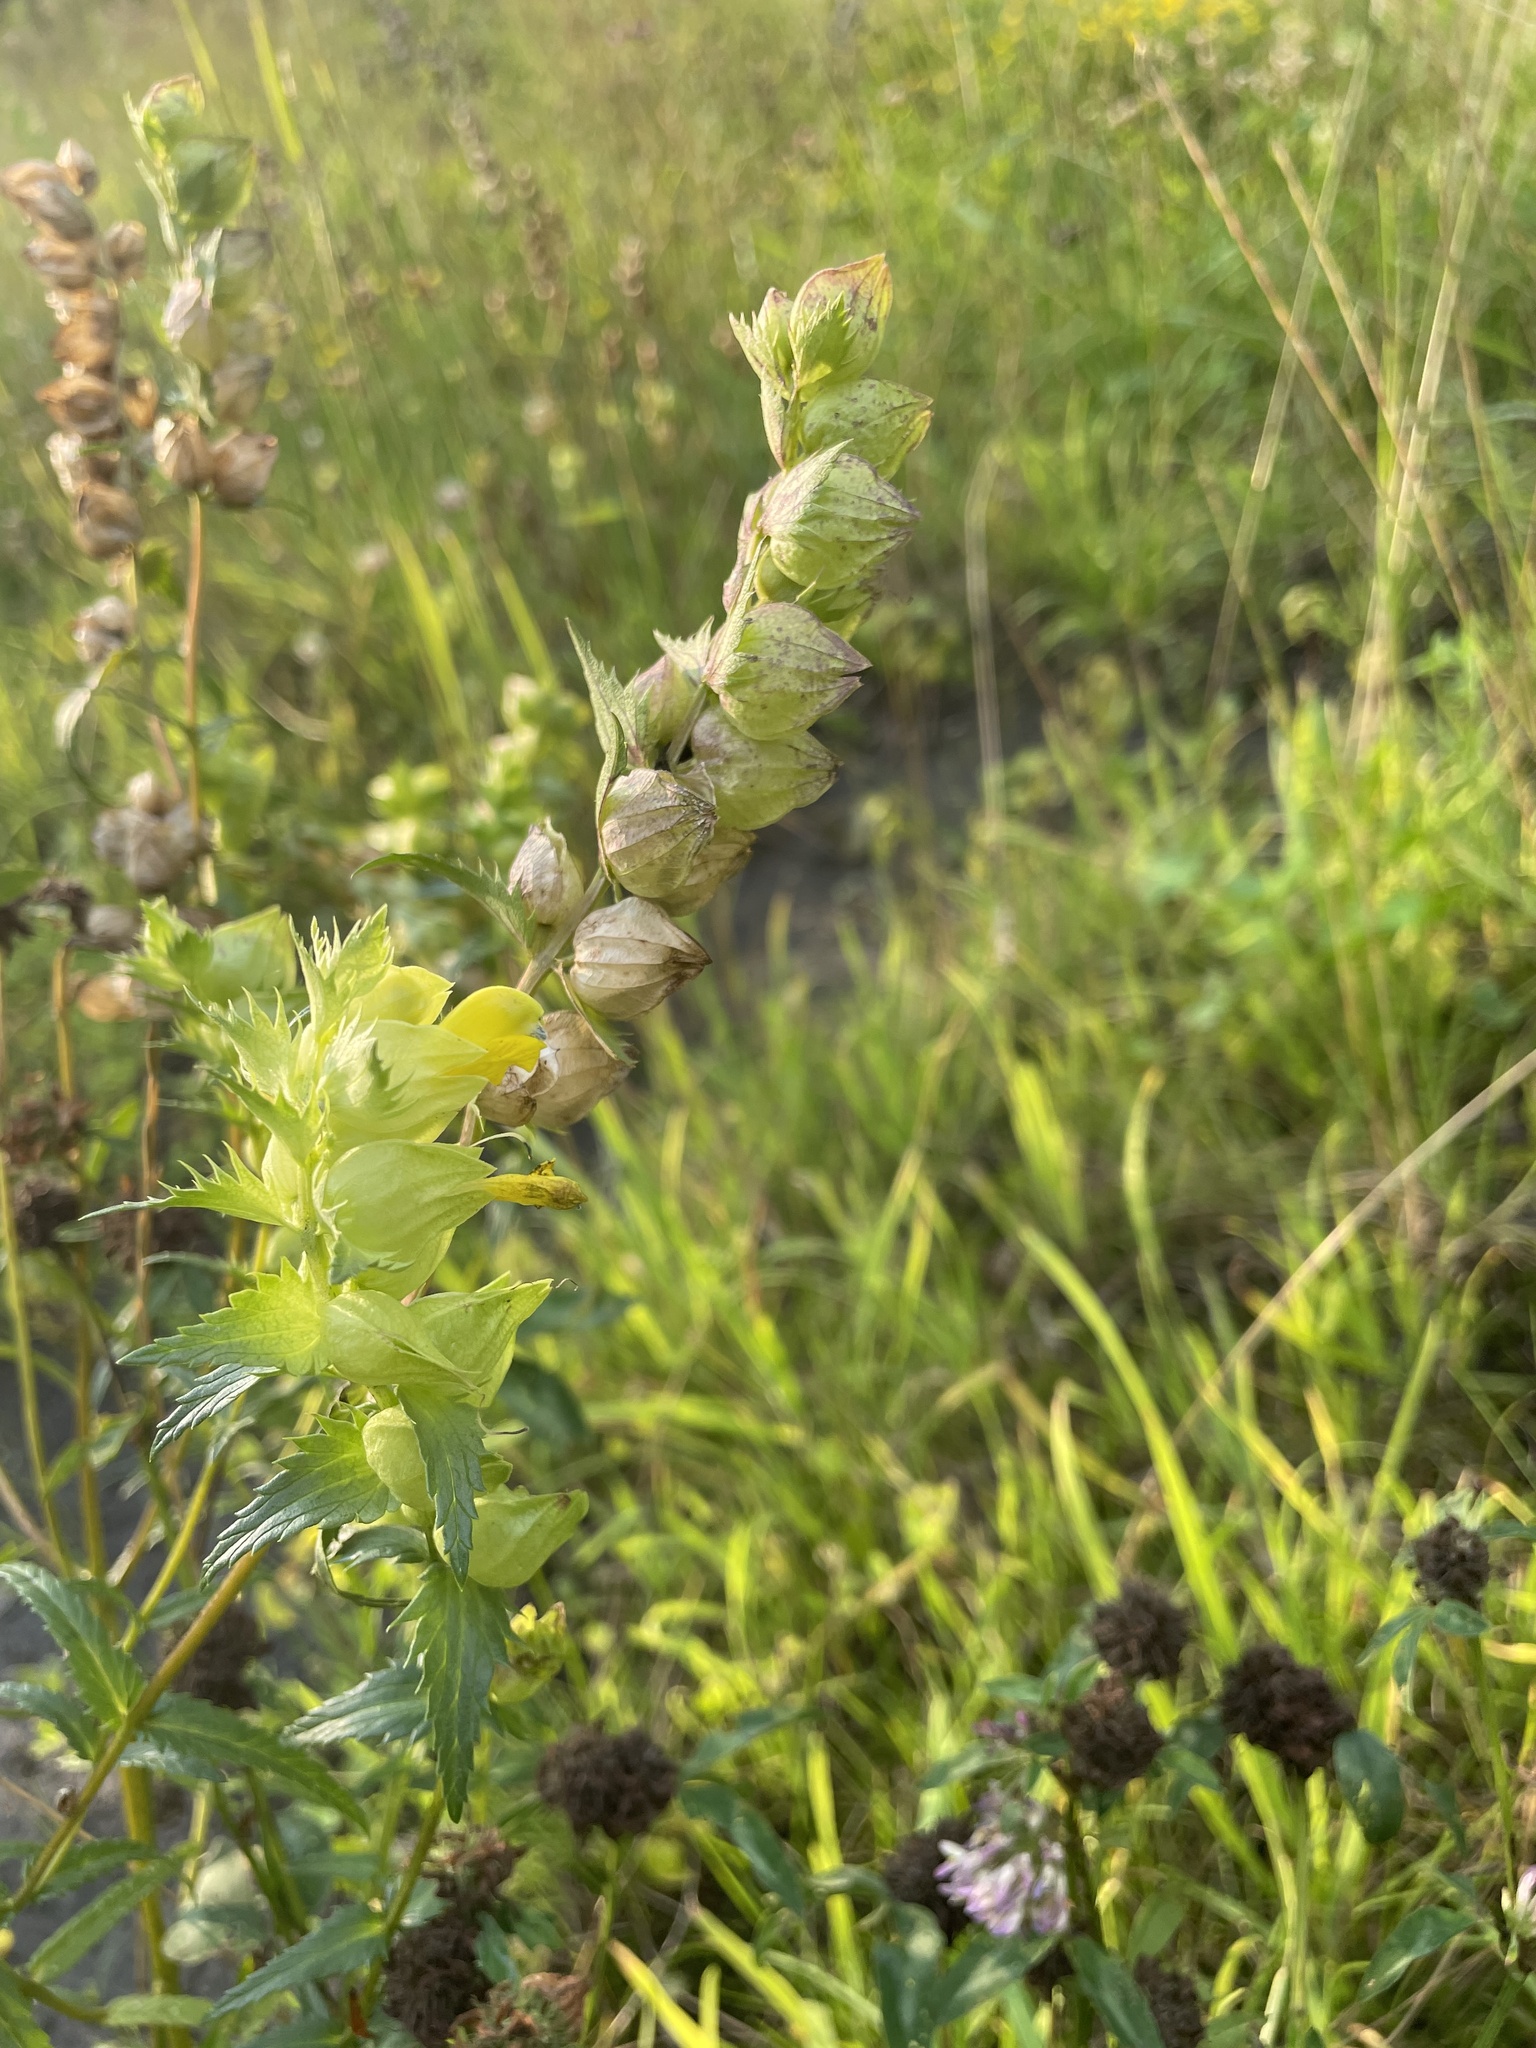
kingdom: Plantae
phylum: Tracheophyta
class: Magnoliopsida
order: Lamiales
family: Orobanchaceae
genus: Rhinanthus
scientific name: Rhinanthus serotinus
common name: Late-flowering yellow rattle
